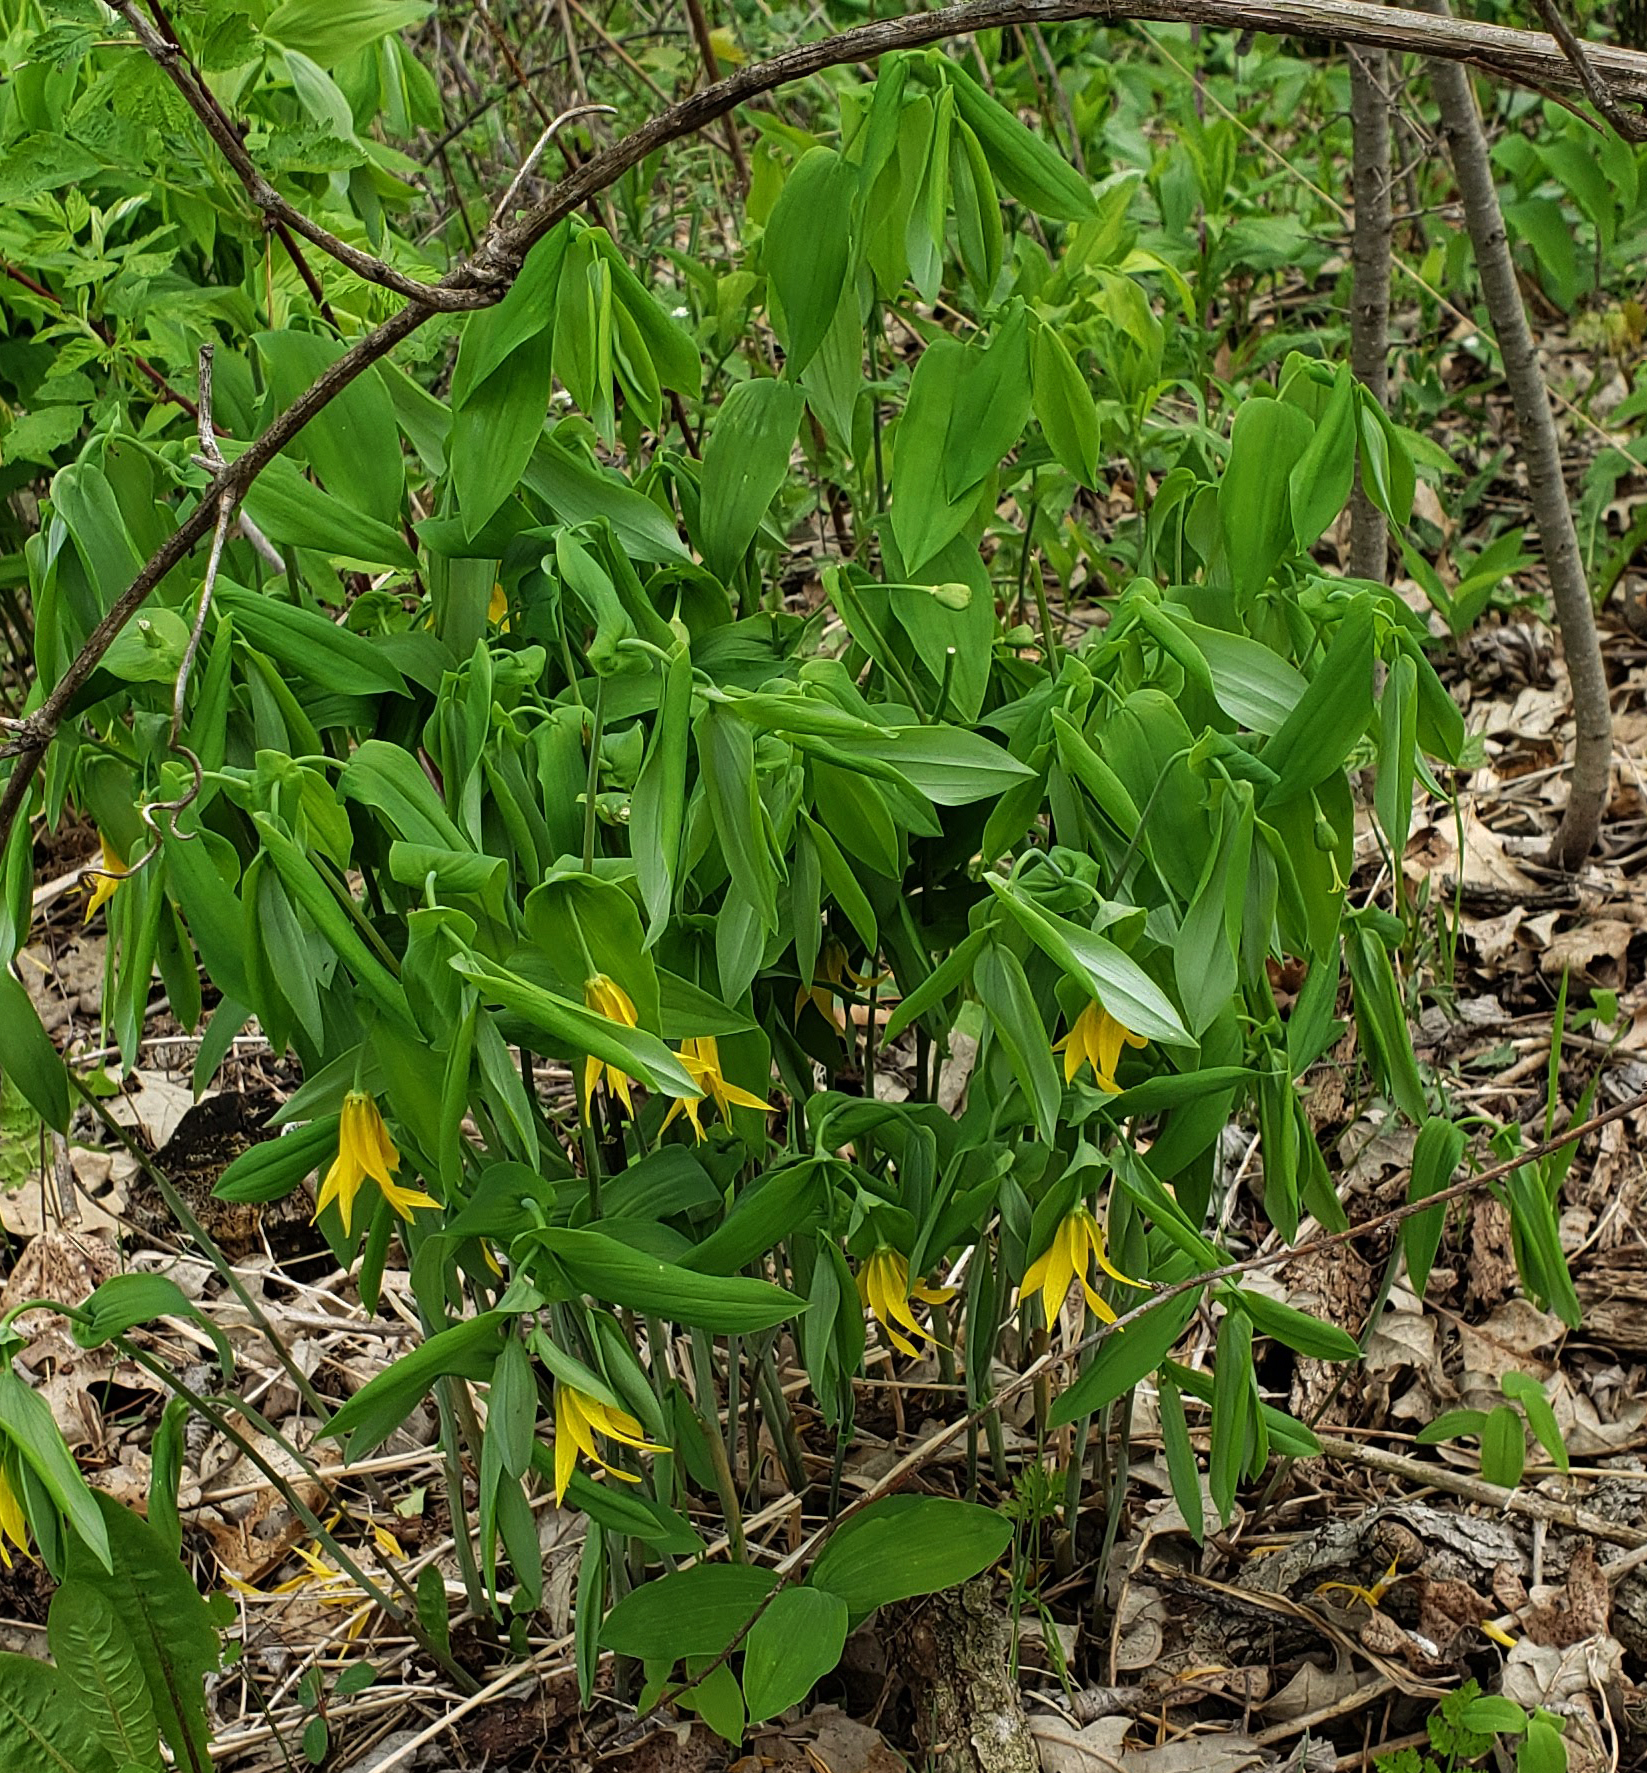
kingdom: Plantae
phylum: Tracheophyta
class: Liliopsida
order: Liliales
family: Colchicaceae
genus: Uvularia
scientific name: Uvularia grandiflora
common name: Bellwort
